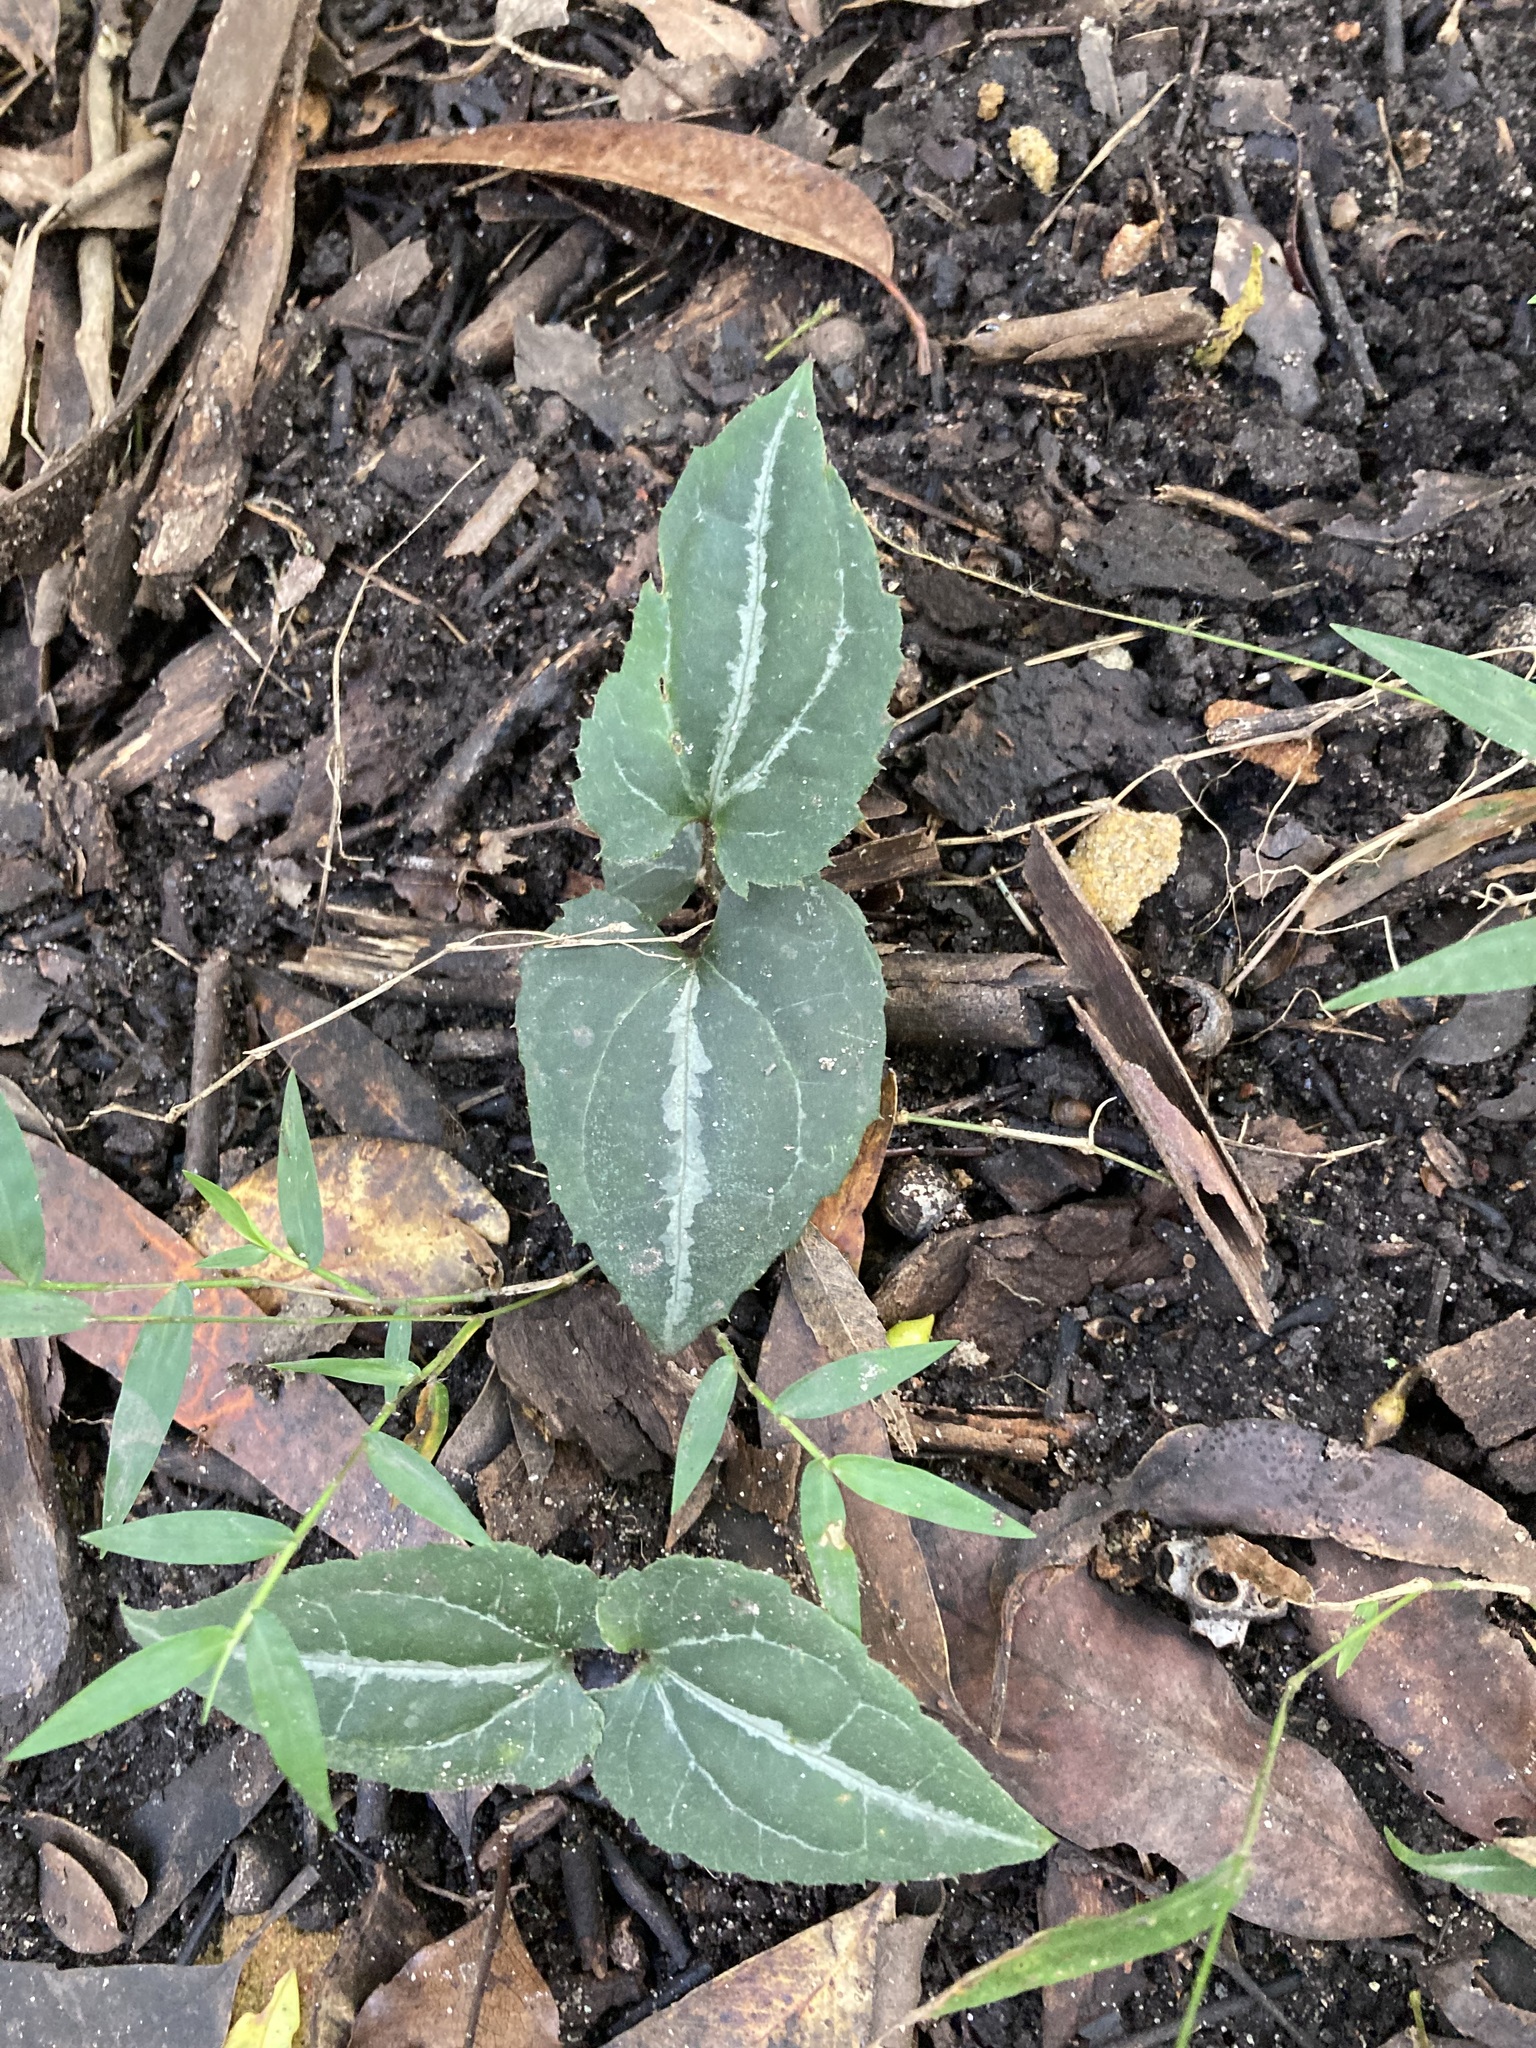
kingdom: Plantae
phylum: Tracheophyta
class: Magnoliopsida
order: Ranunculales
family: Ranunculaceae
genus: Clematis
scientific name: Clematis aristata
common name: Mountain clematis
